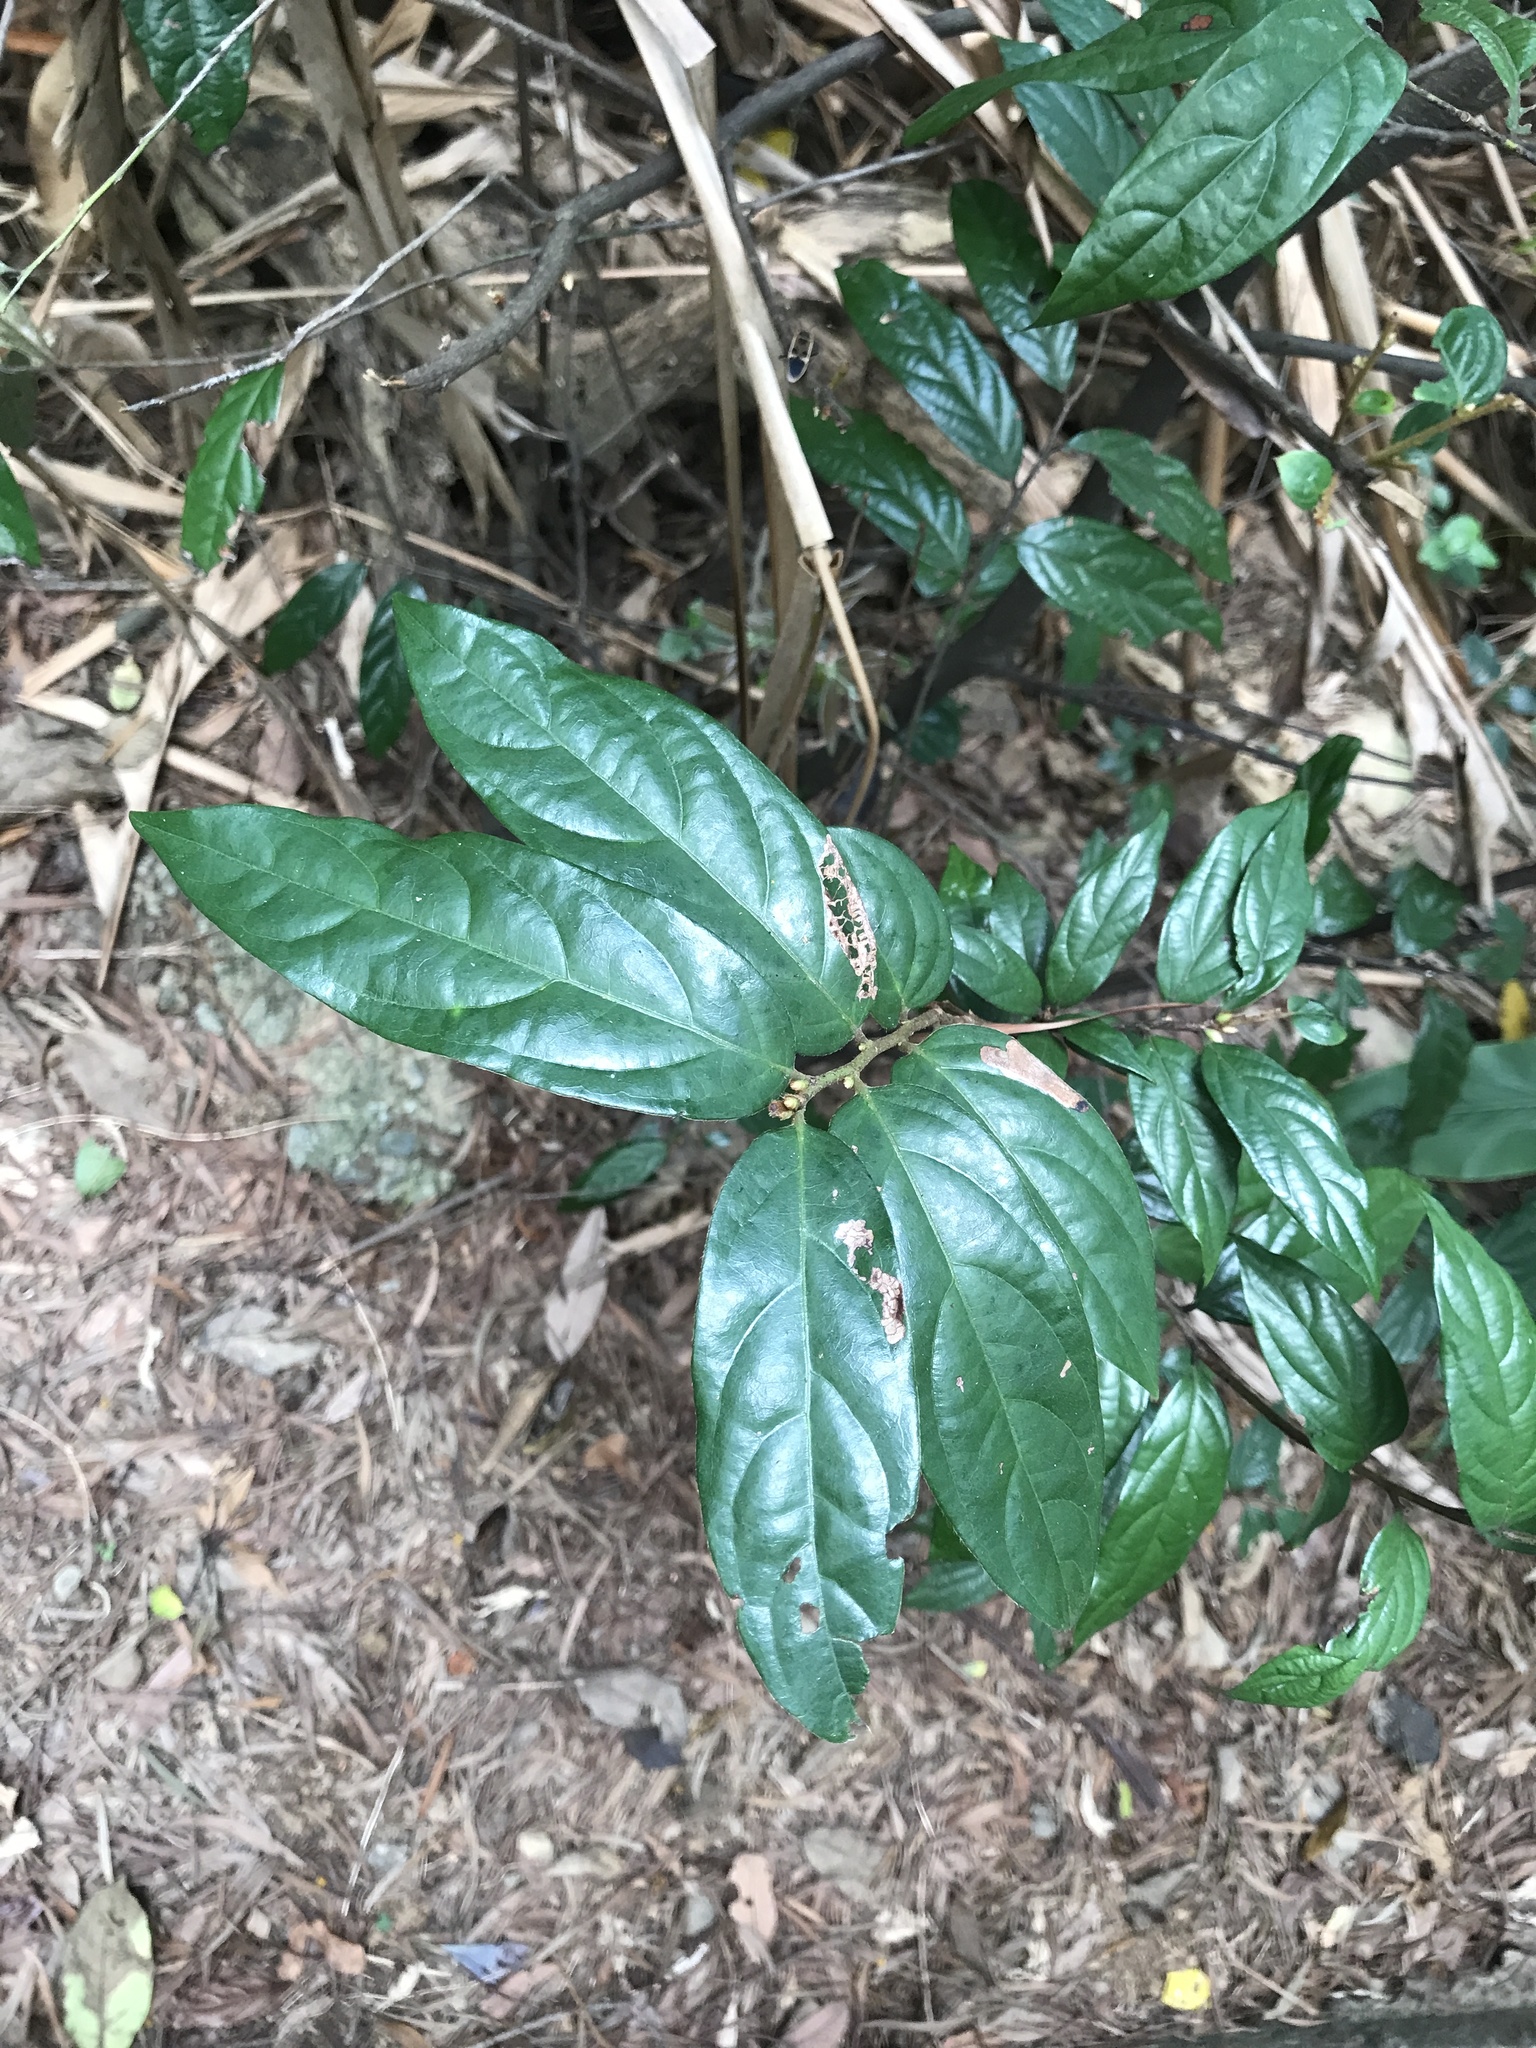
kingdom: Plantae
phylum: Tracheophyta
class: Magnoliopsida
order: Ericales
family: Ebenaceae
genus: Diospyros
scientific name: Diospyros eriantha
